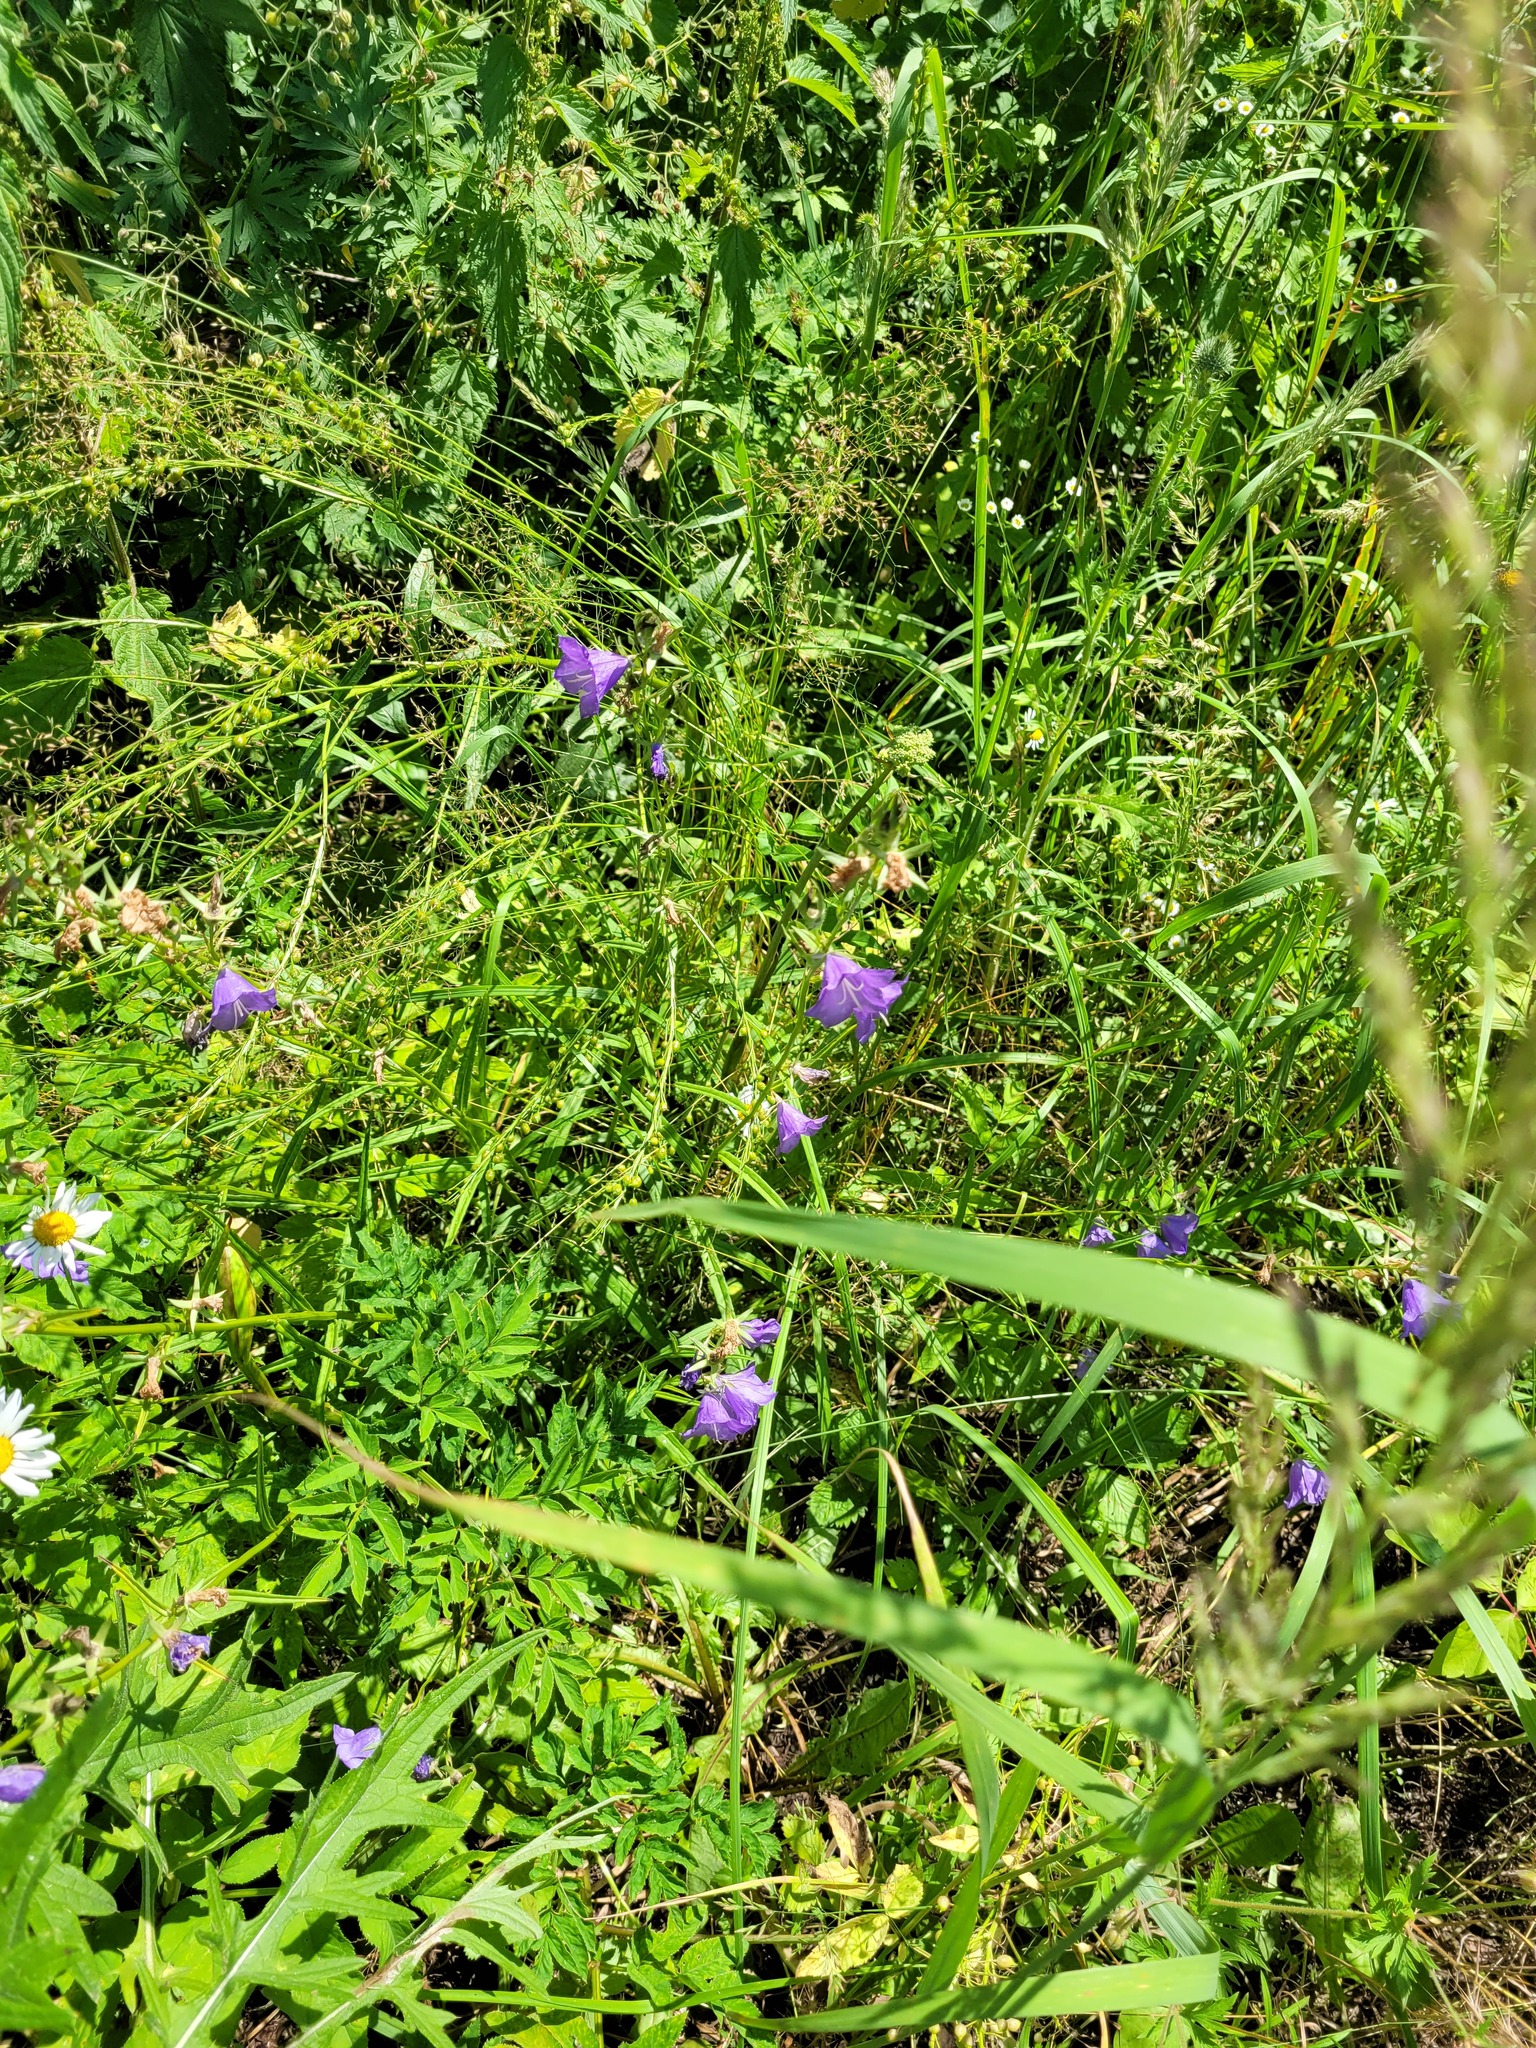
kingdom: Plantae
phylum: Tracheophyta
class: Magnoliopsida
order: Asterales
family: Campanulaceae
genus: Campanula
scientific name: Campanula persicifolia
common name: Peach-leaved bellflower
